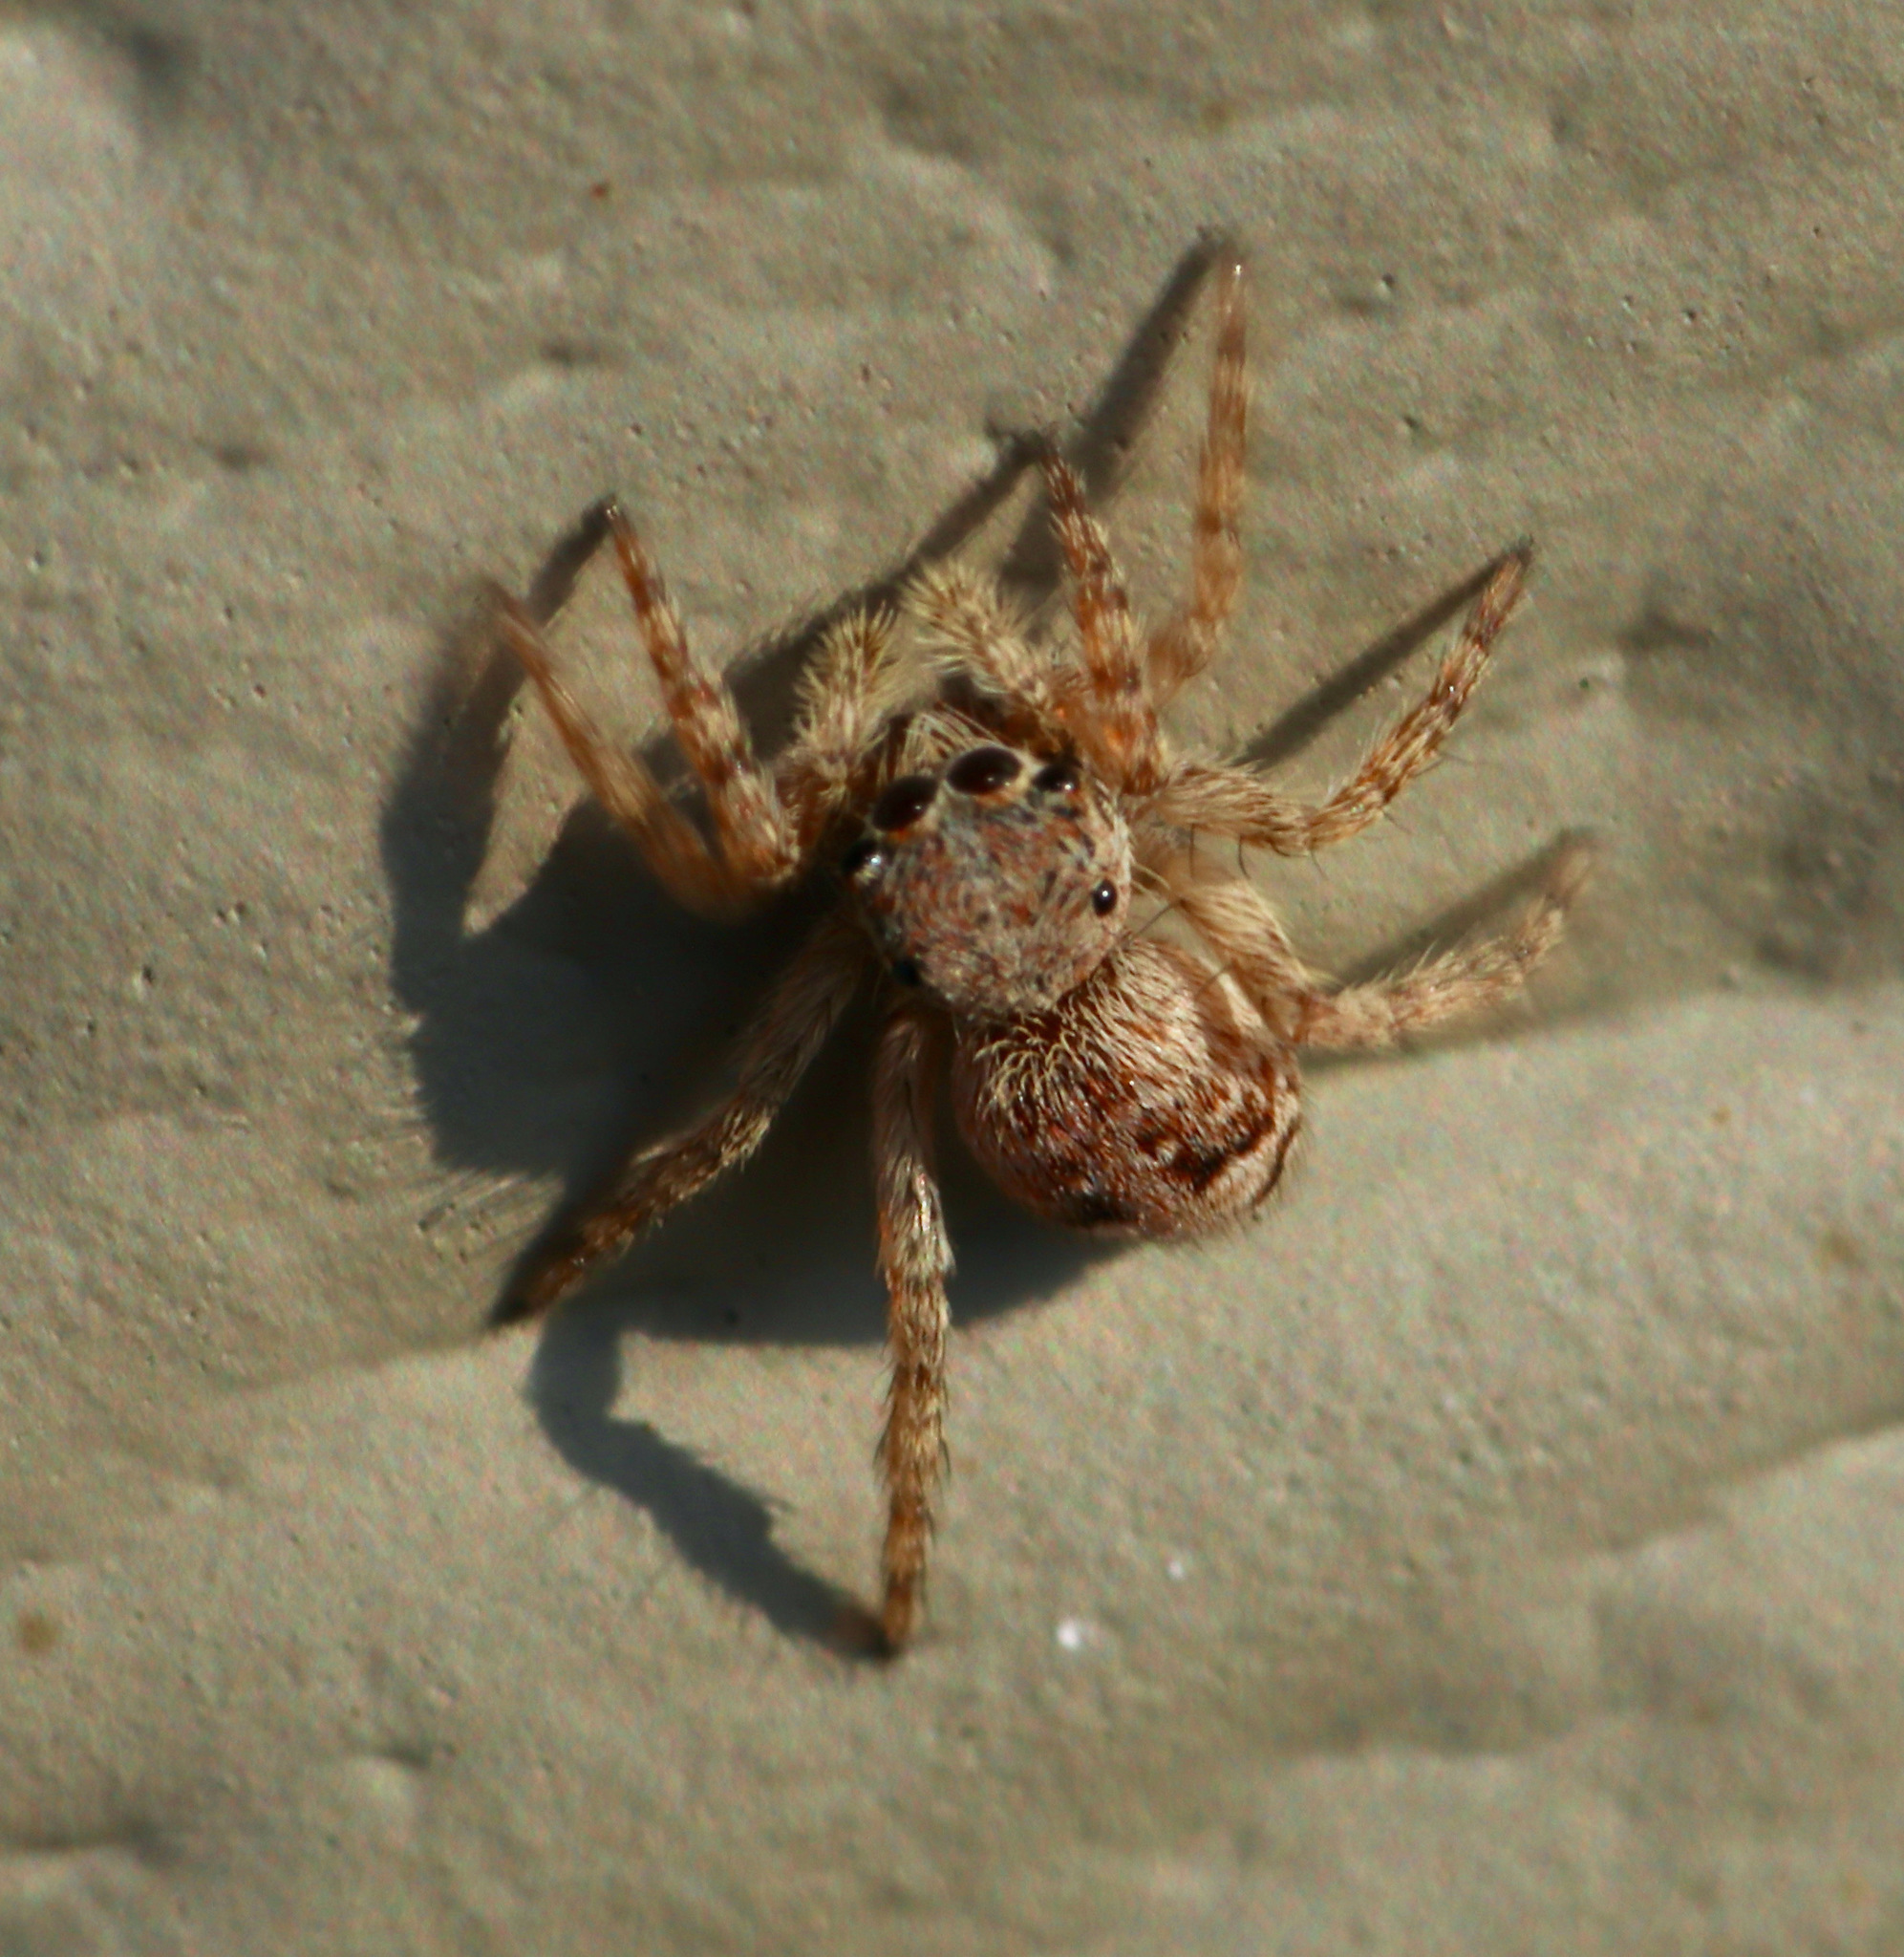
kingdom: Animalia
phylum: Arthropoda
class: Arachnida
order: Araneae
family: Salticidae
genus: Attulus
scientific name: Attulus fasciger
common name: Asiatic wall jumping spider
